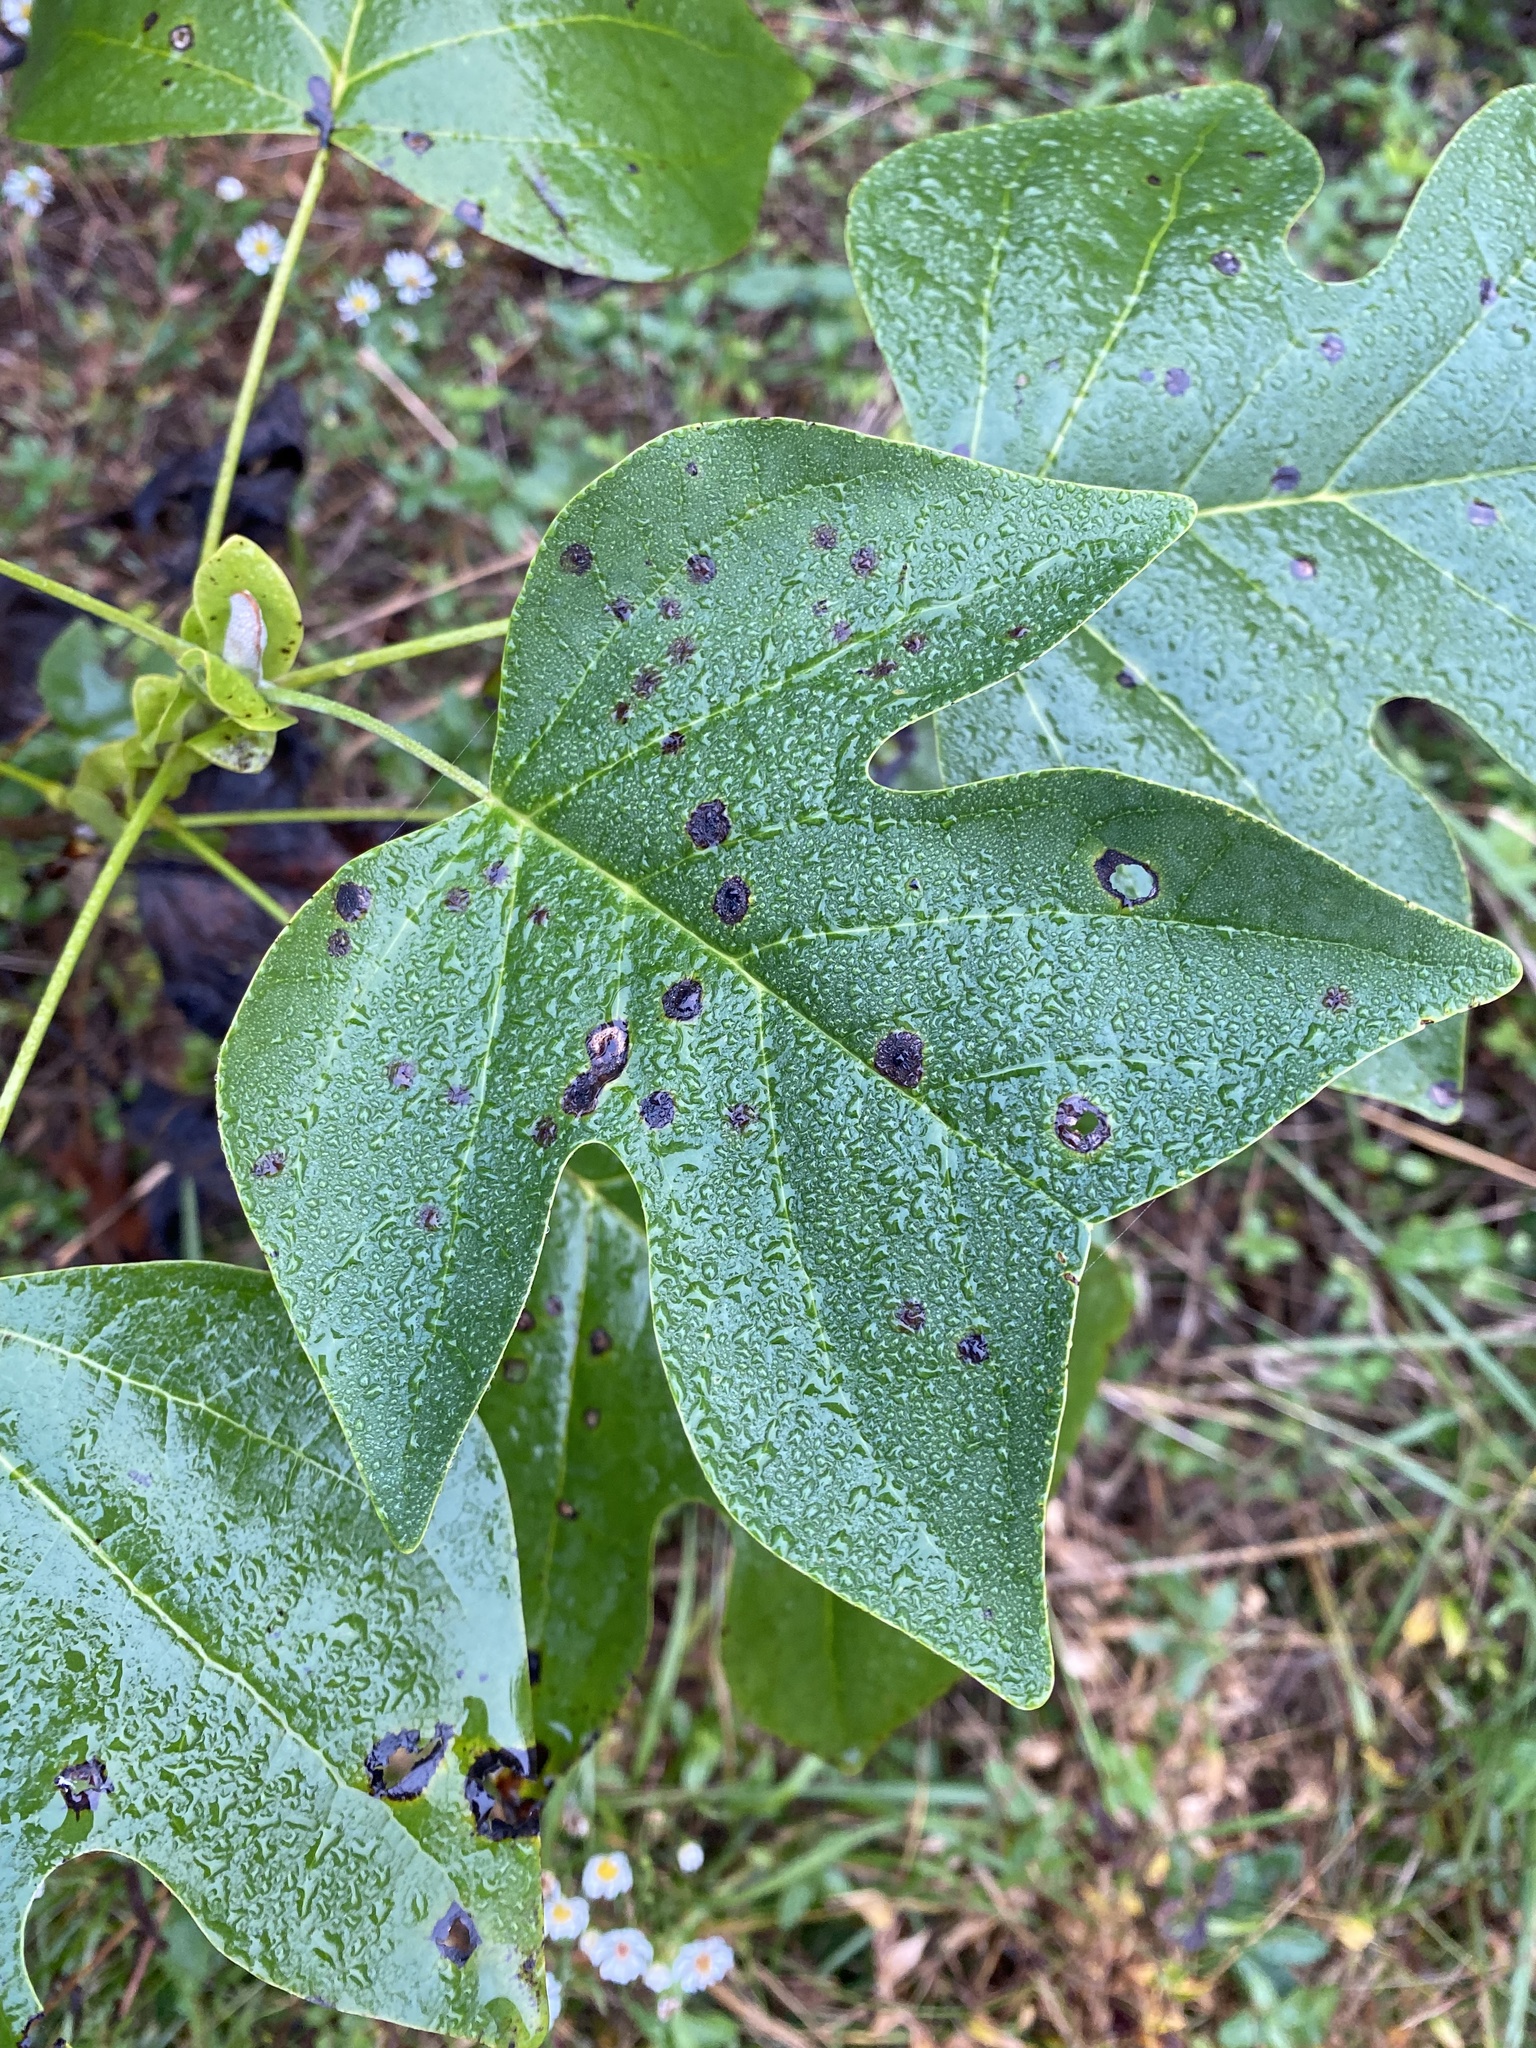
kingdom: Plantae
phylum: Tracheophyta
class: Magnoliopsida
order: Magnoliales
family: Magnoliaceae
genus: Liriodendron
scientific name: Liriodendron tulipifera
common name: Tulip tree
